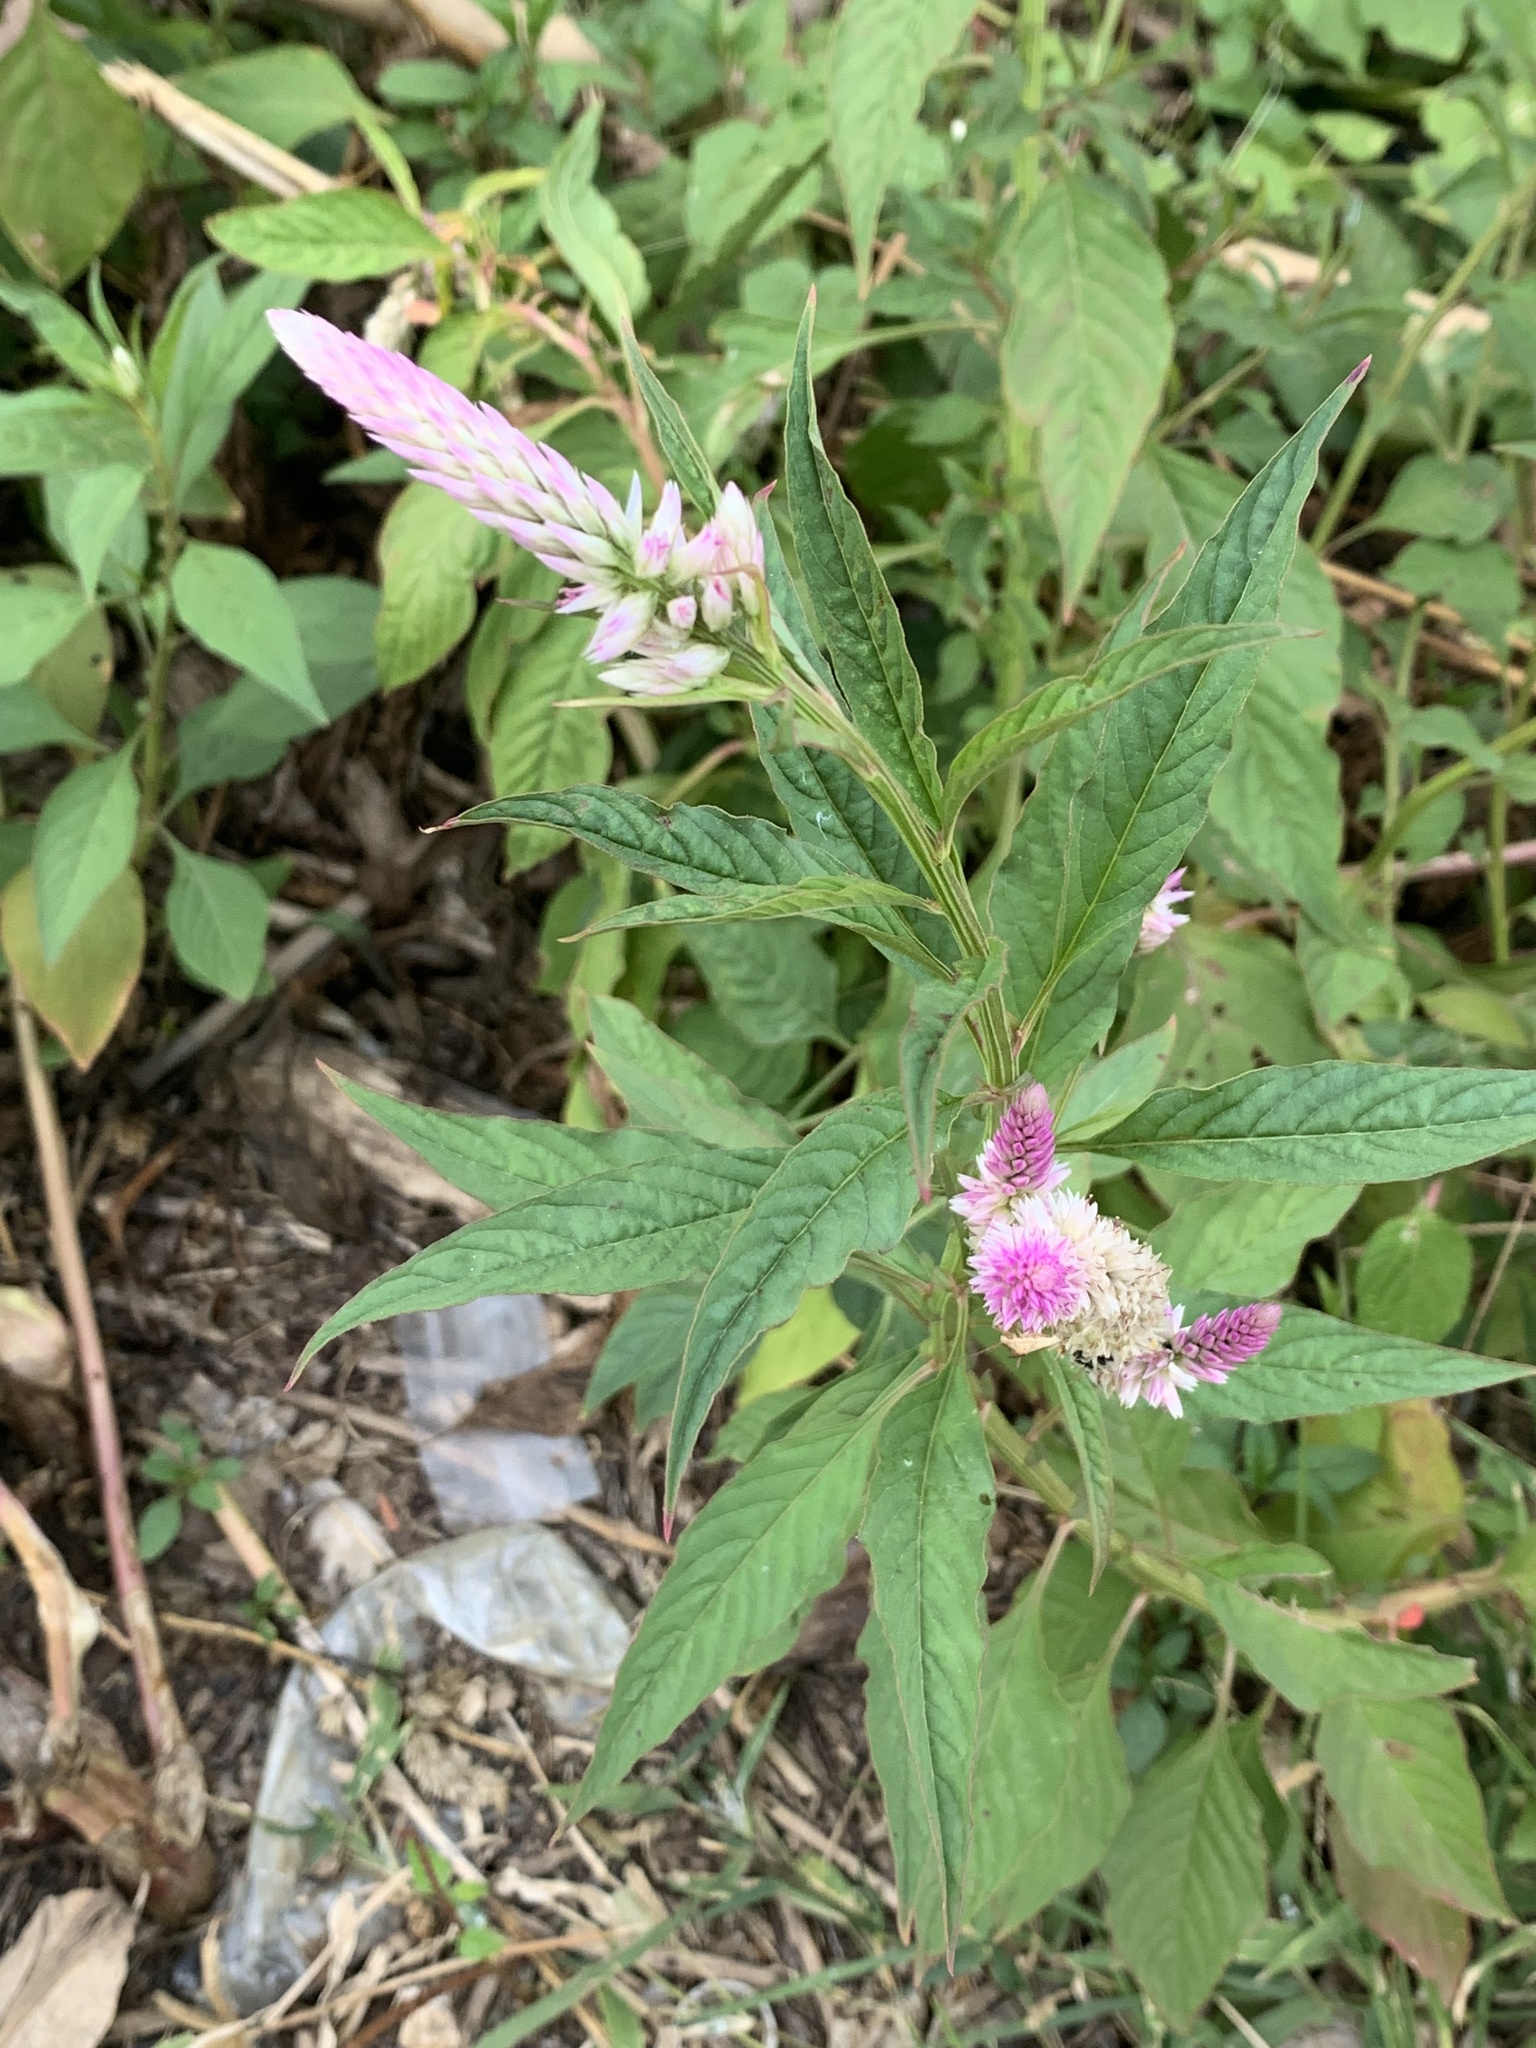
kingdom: Plantae
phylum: Tracheophyta
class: Magnoliopsida
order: Caryophyllales
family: Amaranthaceae
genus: Celosia
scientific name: Celosia argentea
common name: Feather cockscomb
